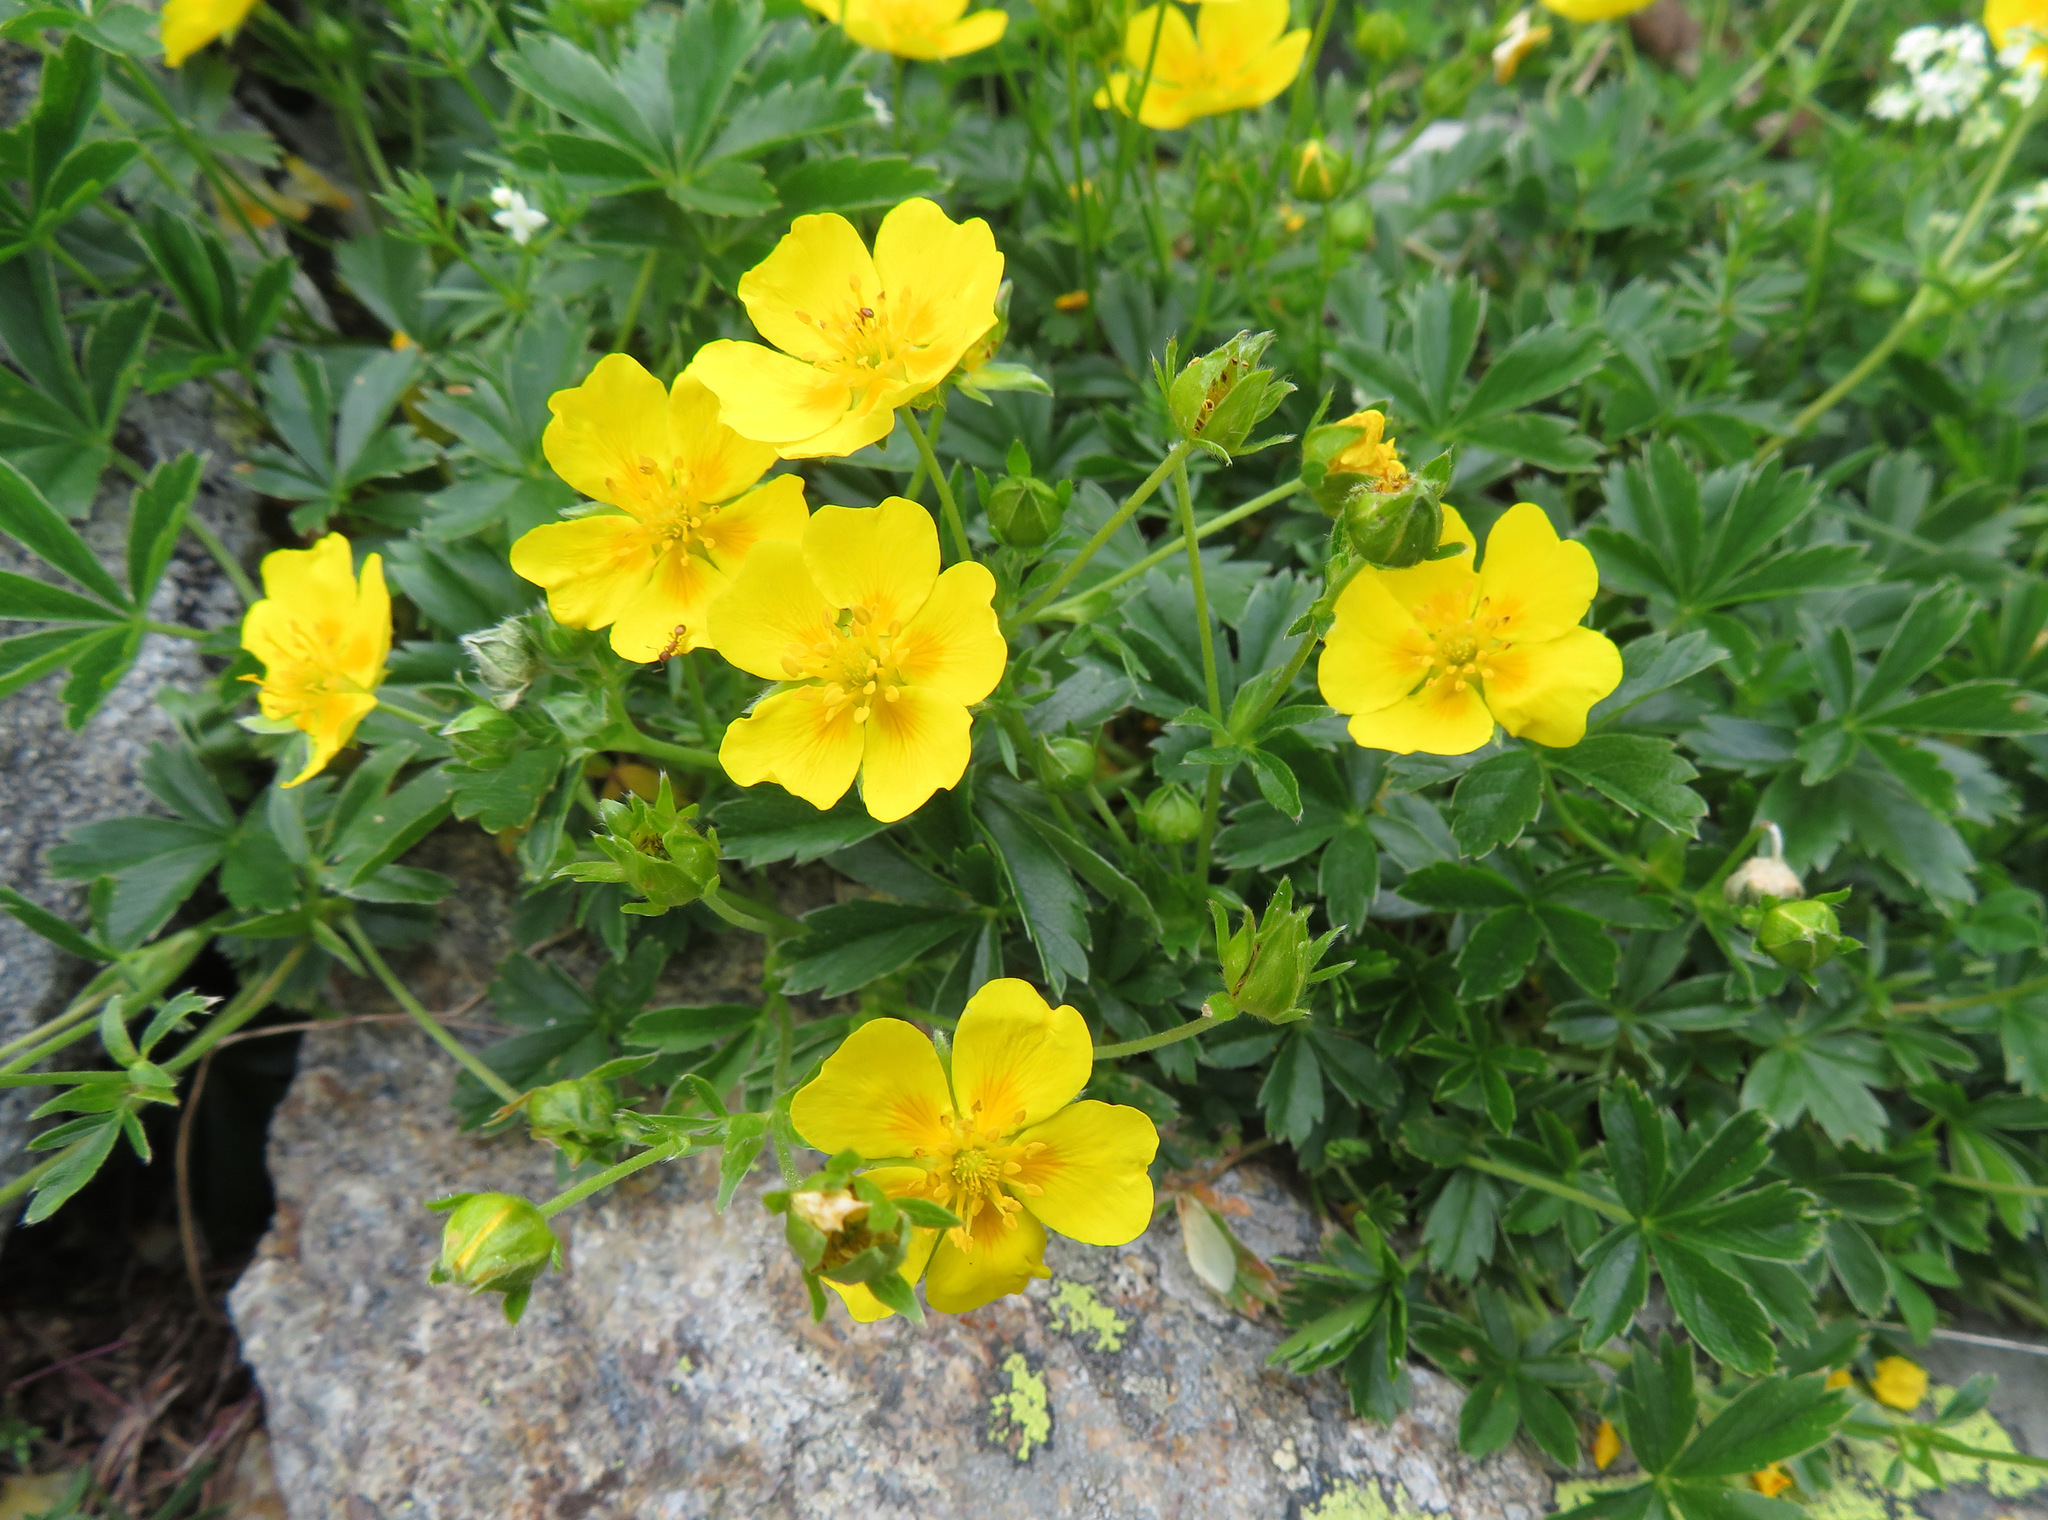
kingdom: Plantae
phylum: Tracheophyta
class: Magnoliopsida
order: Rosales
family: Rosaceae
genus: Potentilla
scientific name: Potentilla aurea
